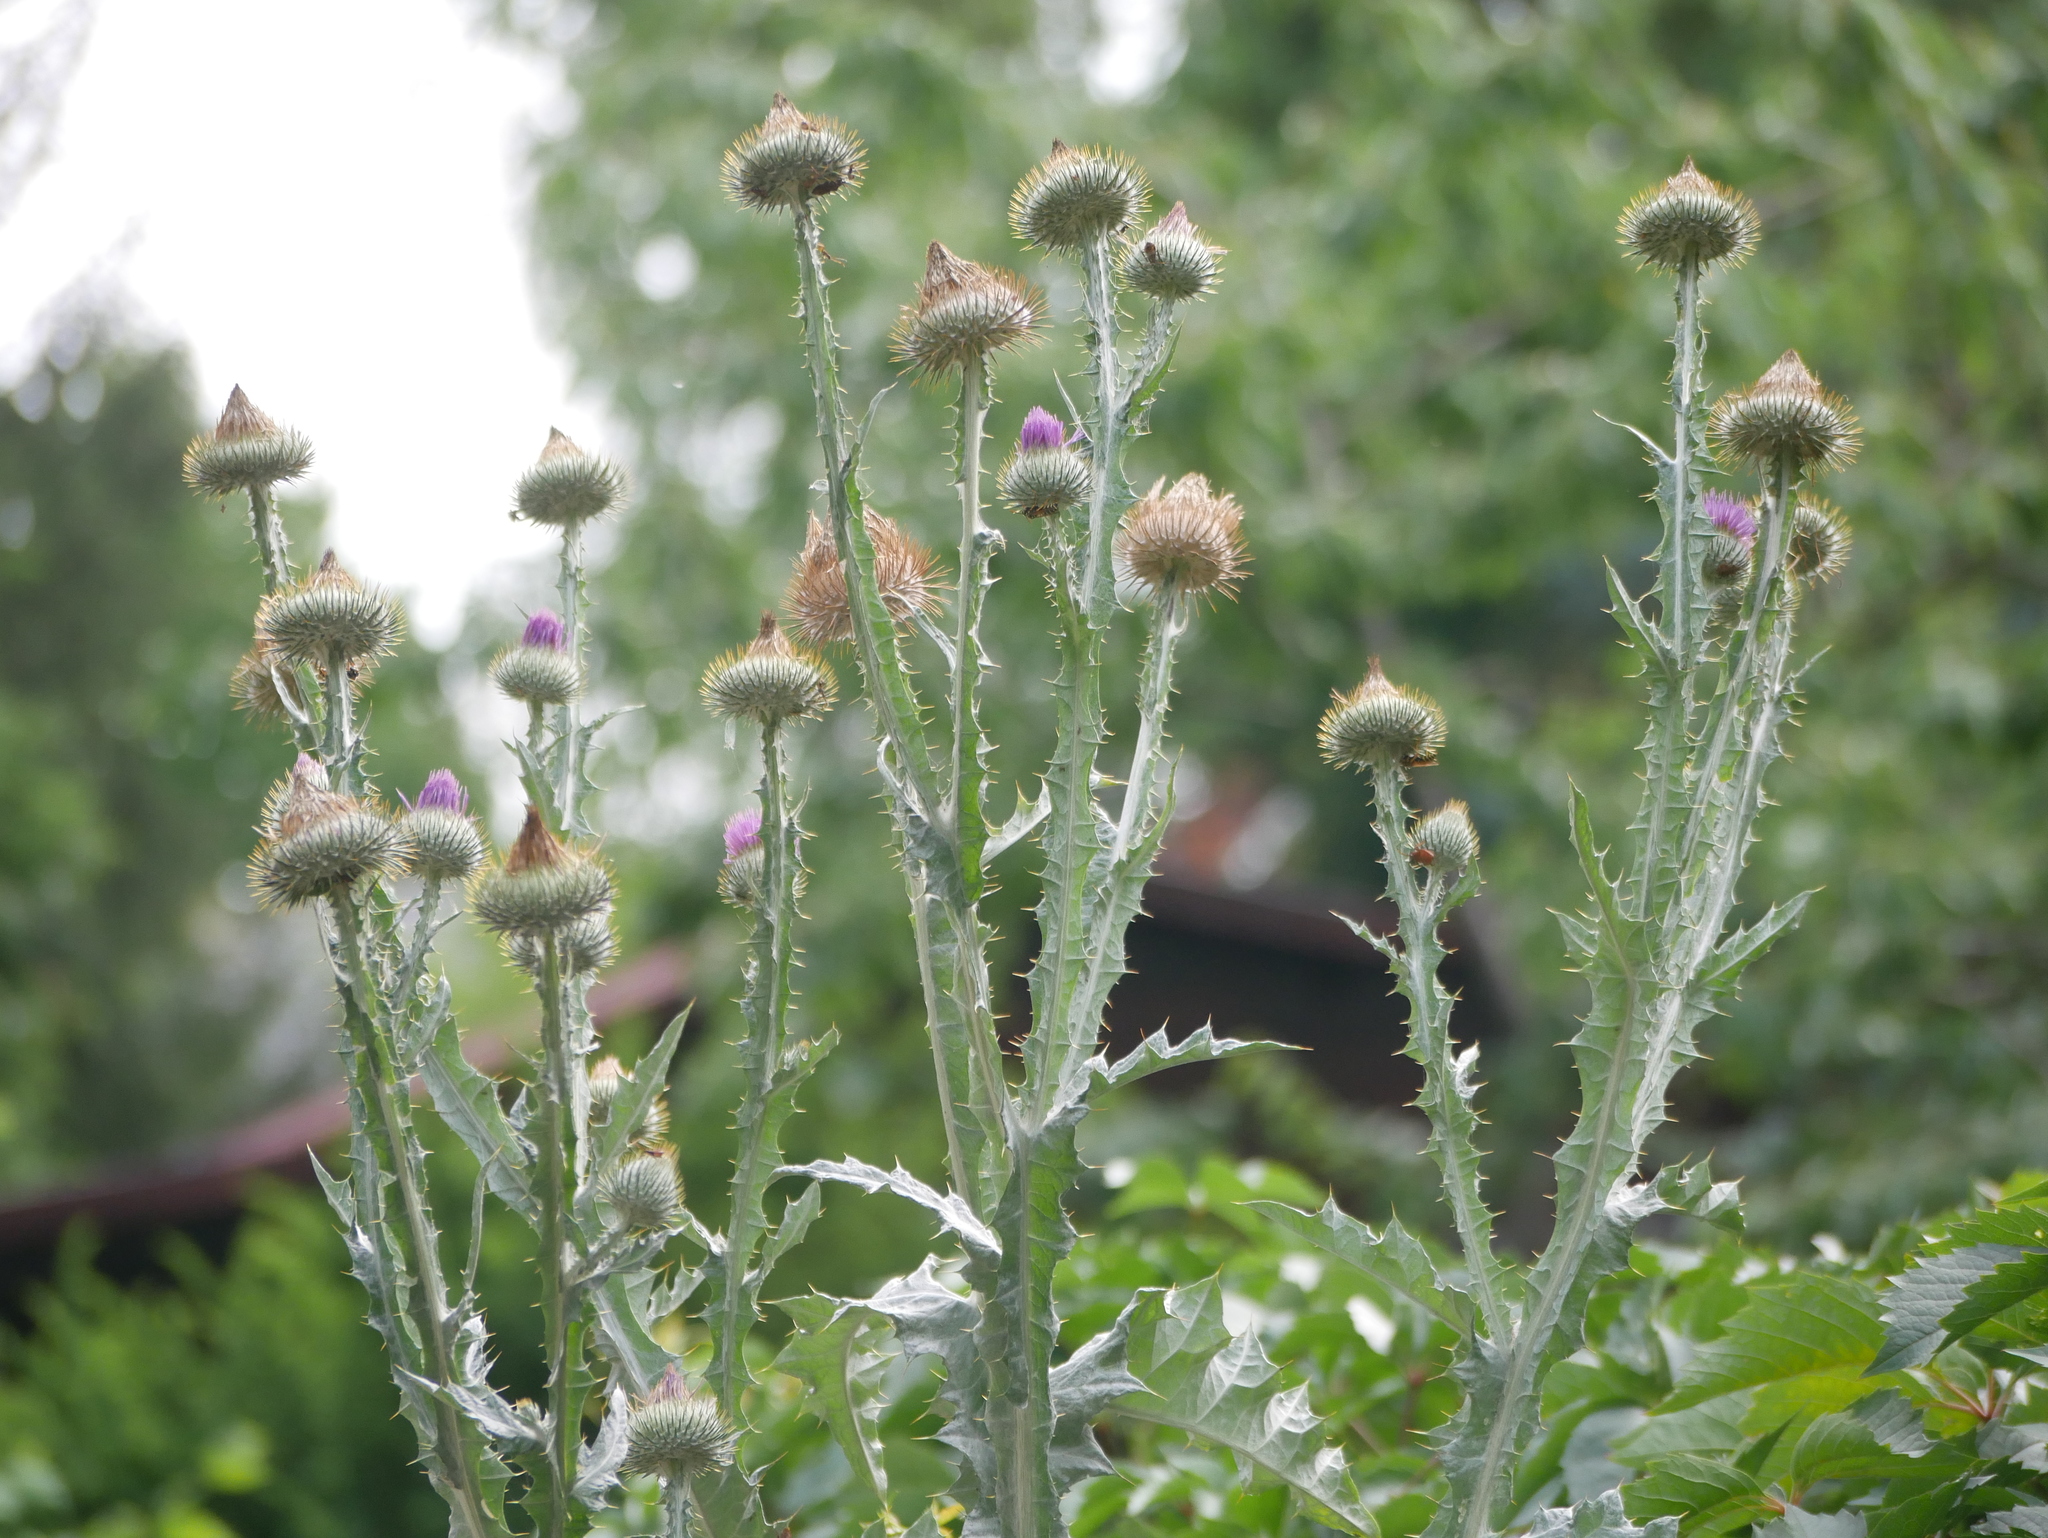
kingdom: Plantae
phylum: Tracheophyta
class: Magnoliopsida
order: Asterales
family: Asteraceae
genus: Onopordum
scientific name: Onopordum acanthium
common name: Scotch thistle
